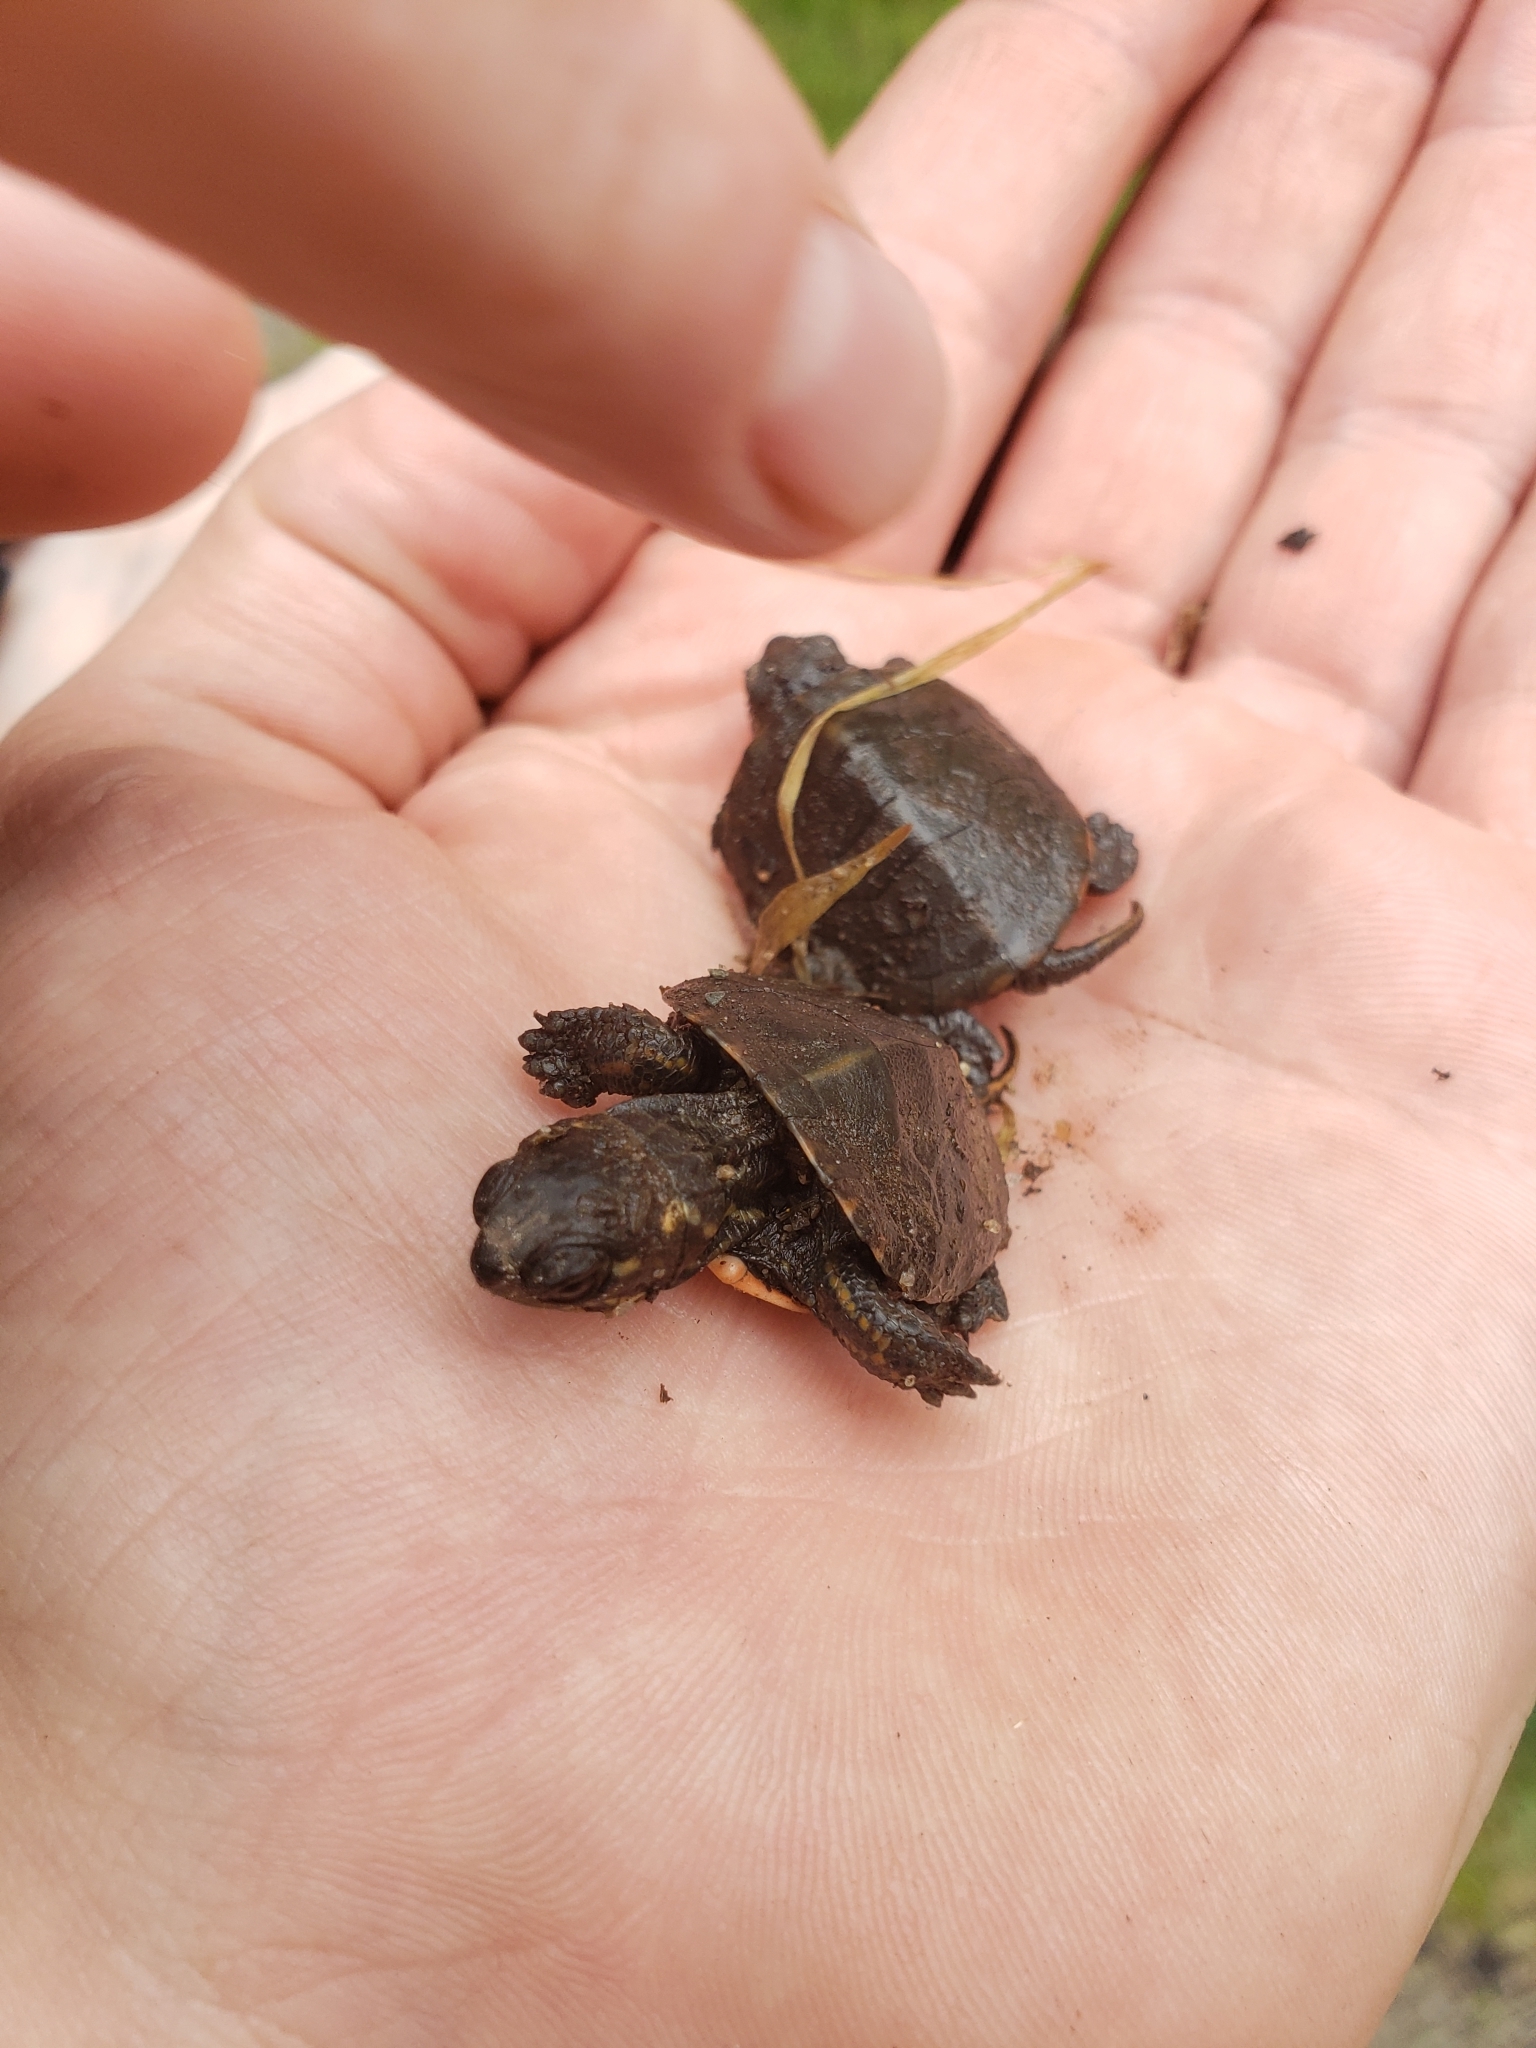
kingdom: Animalia
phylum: Chordata
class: Testudines
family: Emydidae
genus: Chrysemys
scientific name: Chrysemys picta
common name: Painted turtle
